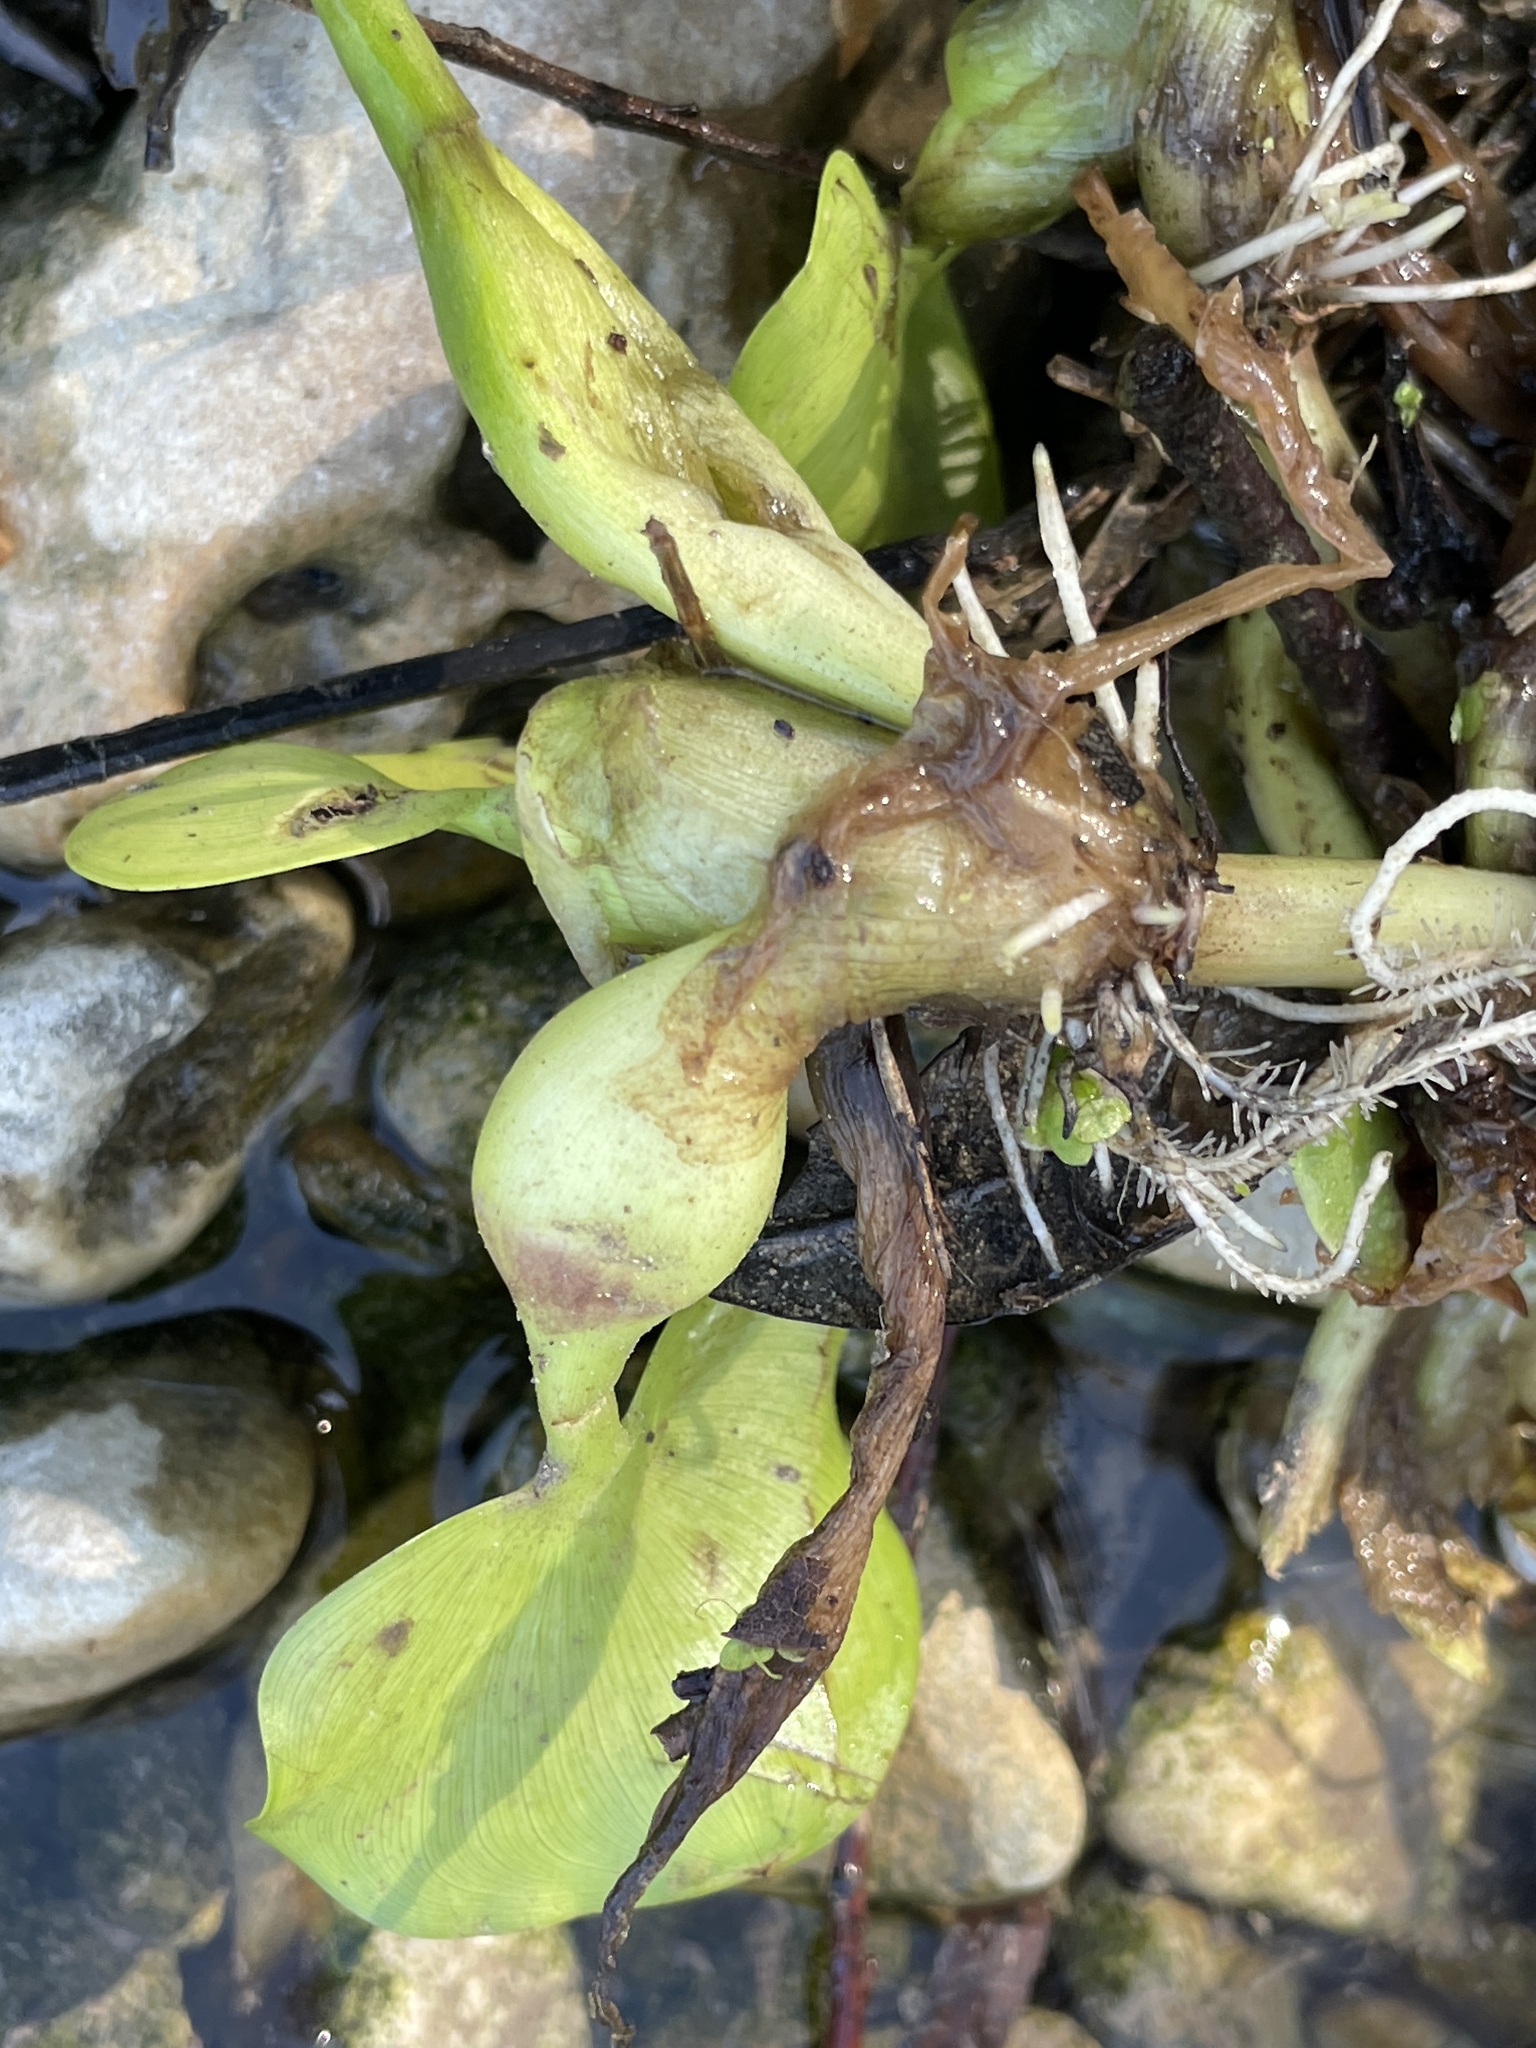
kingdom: Plantae
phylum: Tracheophyta
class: Liliopsida
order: Commelinales
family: Pontederiaceae
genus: Pontederia
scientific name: Pontederia crassipes
